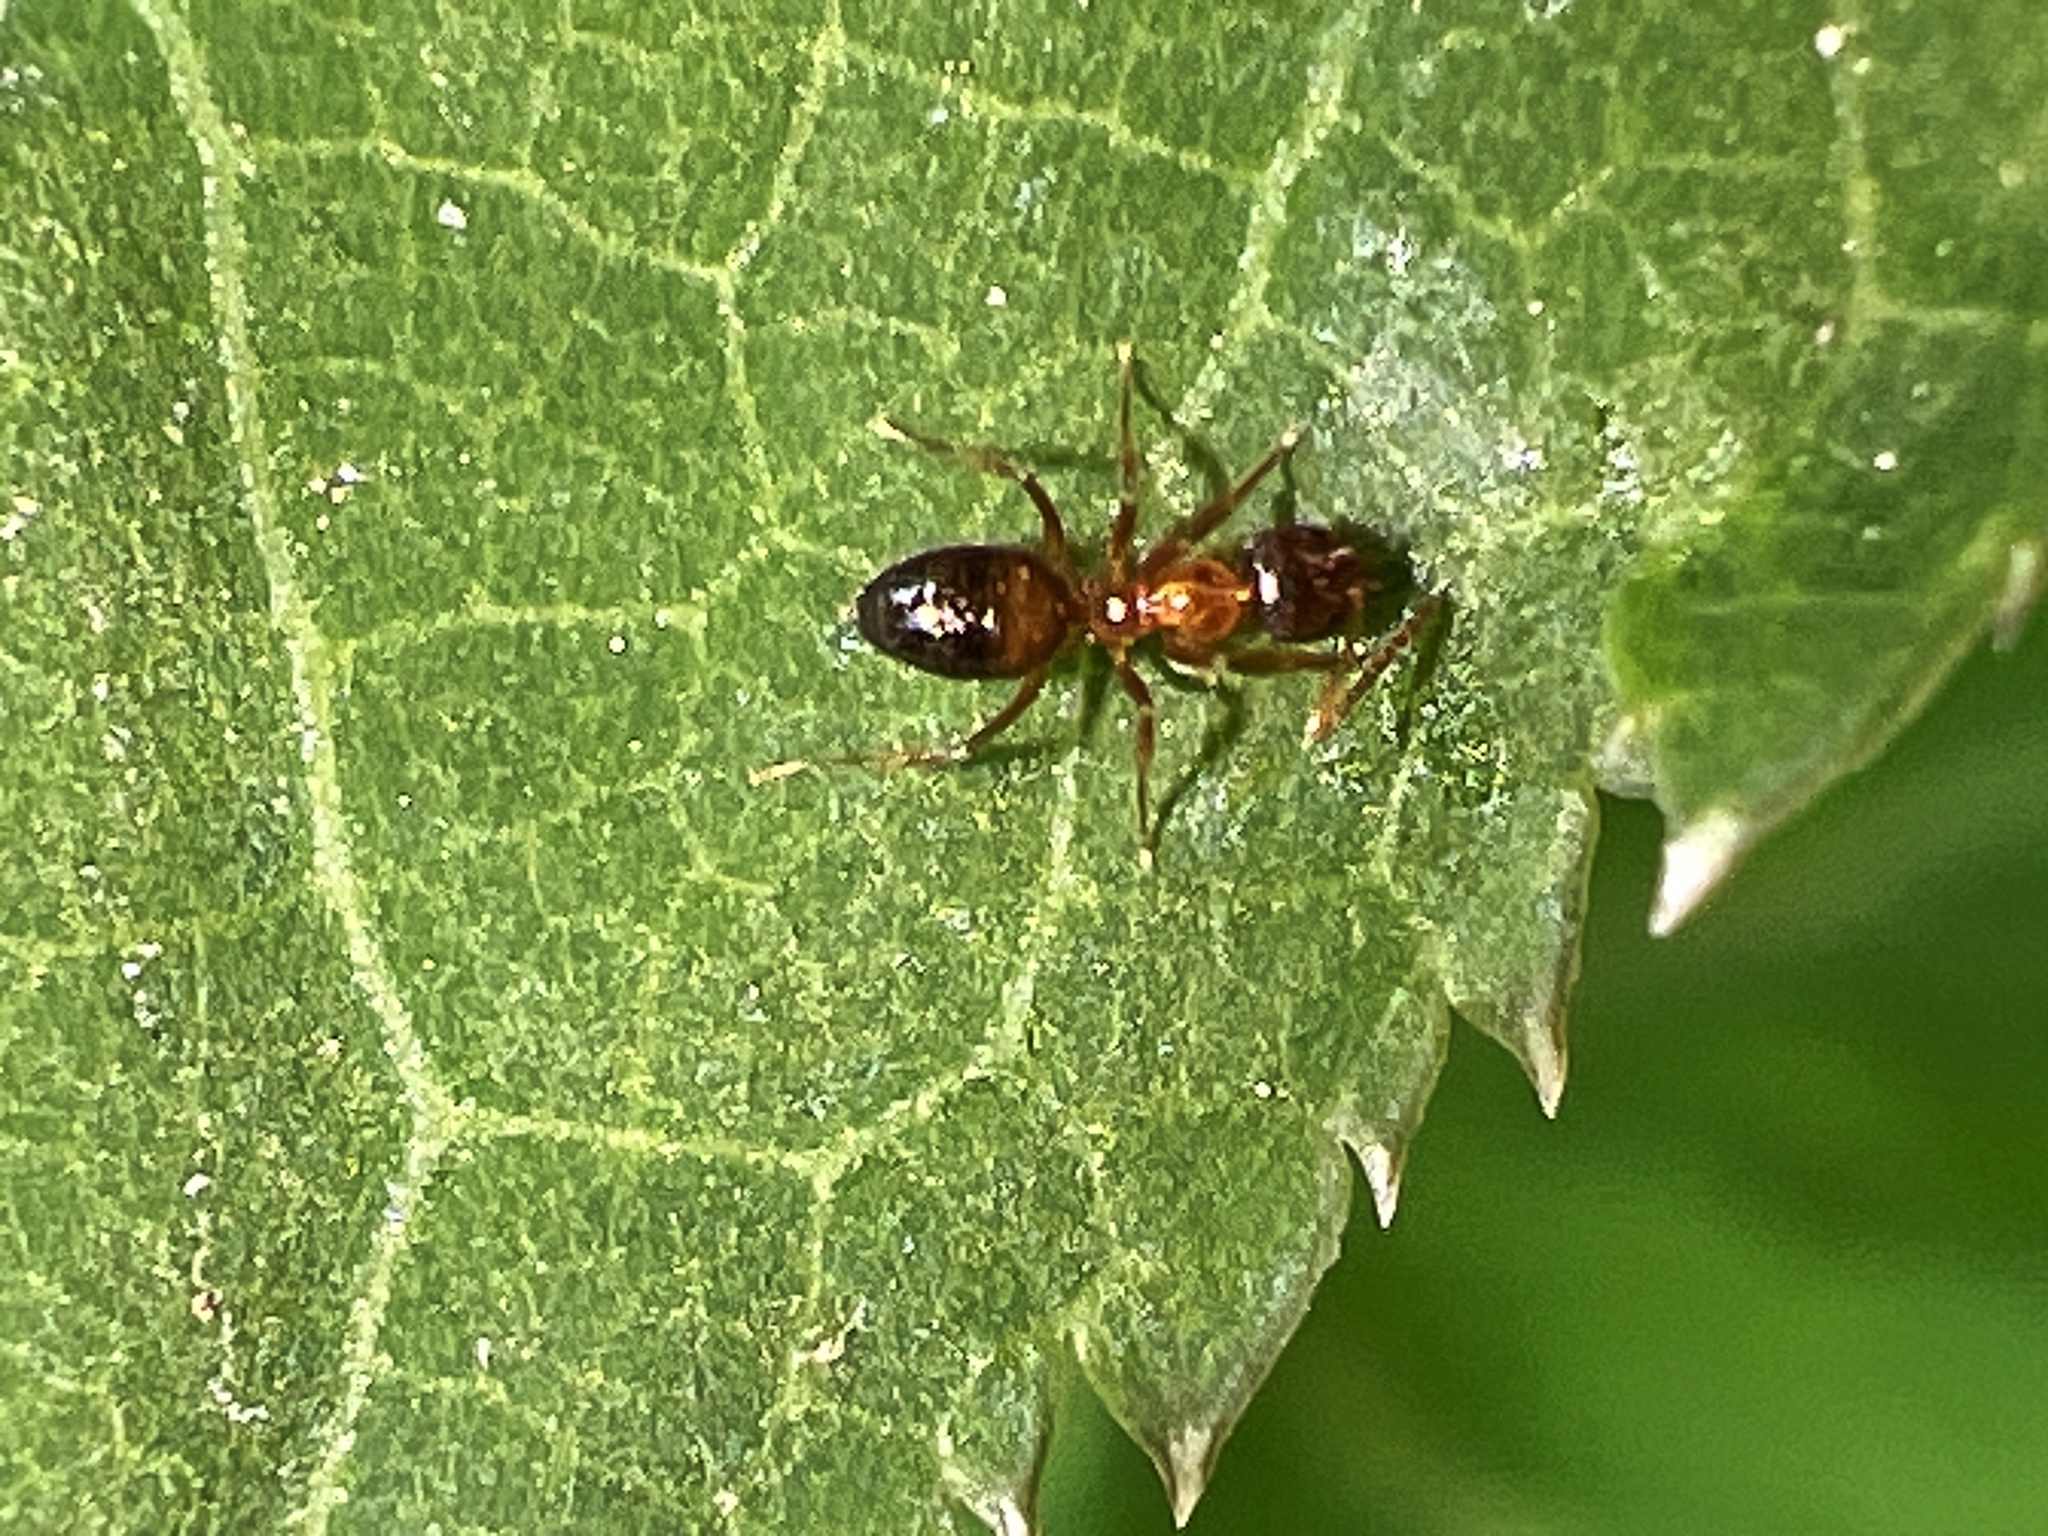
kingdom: Animalia
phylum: Arthropoda
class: Insecta
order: Hymenoptera
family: Formicidae
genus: Paratrechina
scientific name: Paratrechina flavipes
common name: Eastern asian formicine ant
